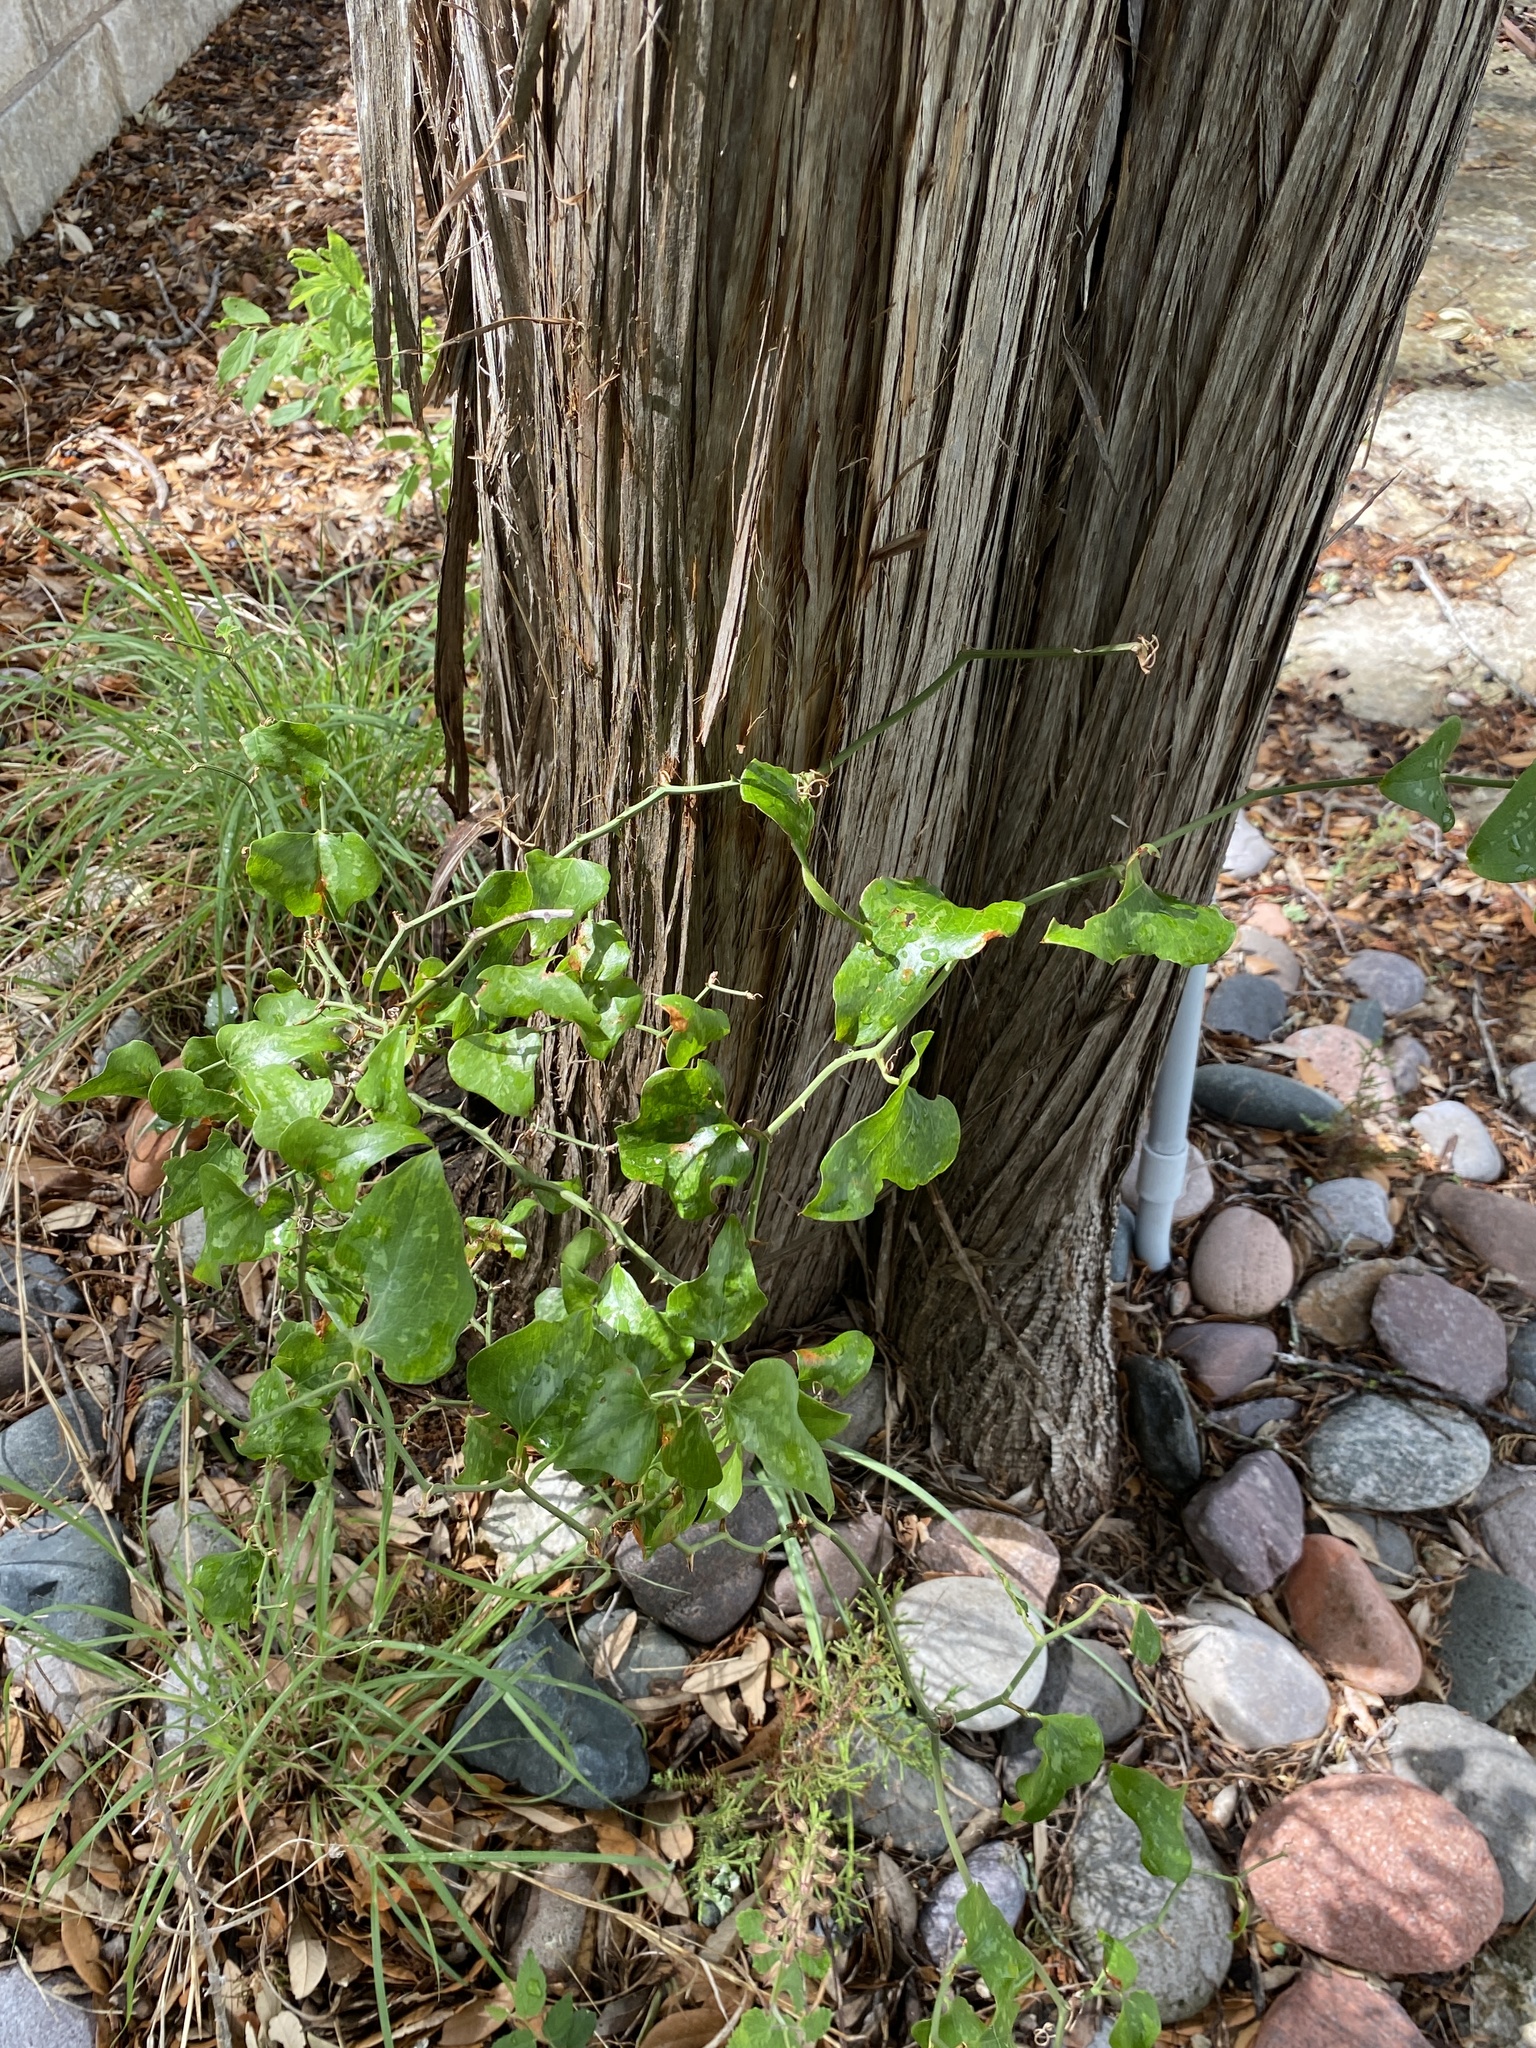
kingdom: Plantae
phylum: Tracheophyta
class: Liliopsida
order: Liliales
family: Smilacaceae
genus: Smilax
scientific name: Smilax bona-nox
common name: Catbrier
